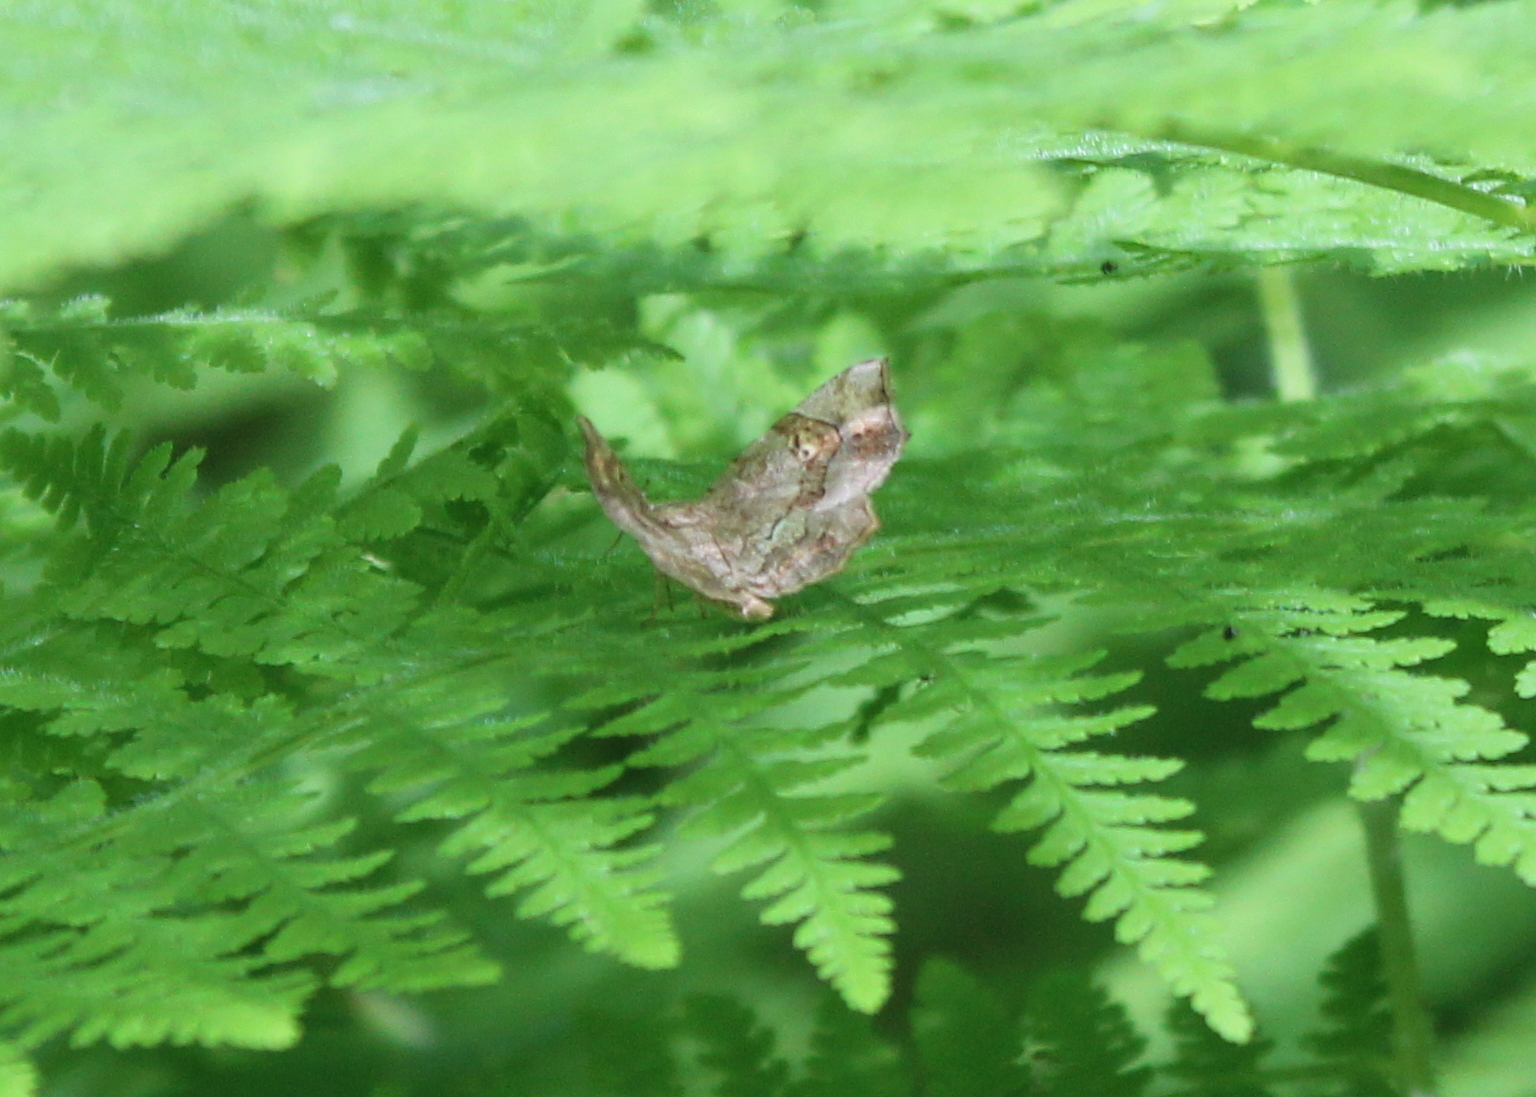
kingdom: Animalia
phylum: Arthropoda
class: Insecta
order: Lepidoptera
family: Erebidae
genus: Pangrapta
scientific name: Pangrapta decoralis
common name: Decorated owlet
